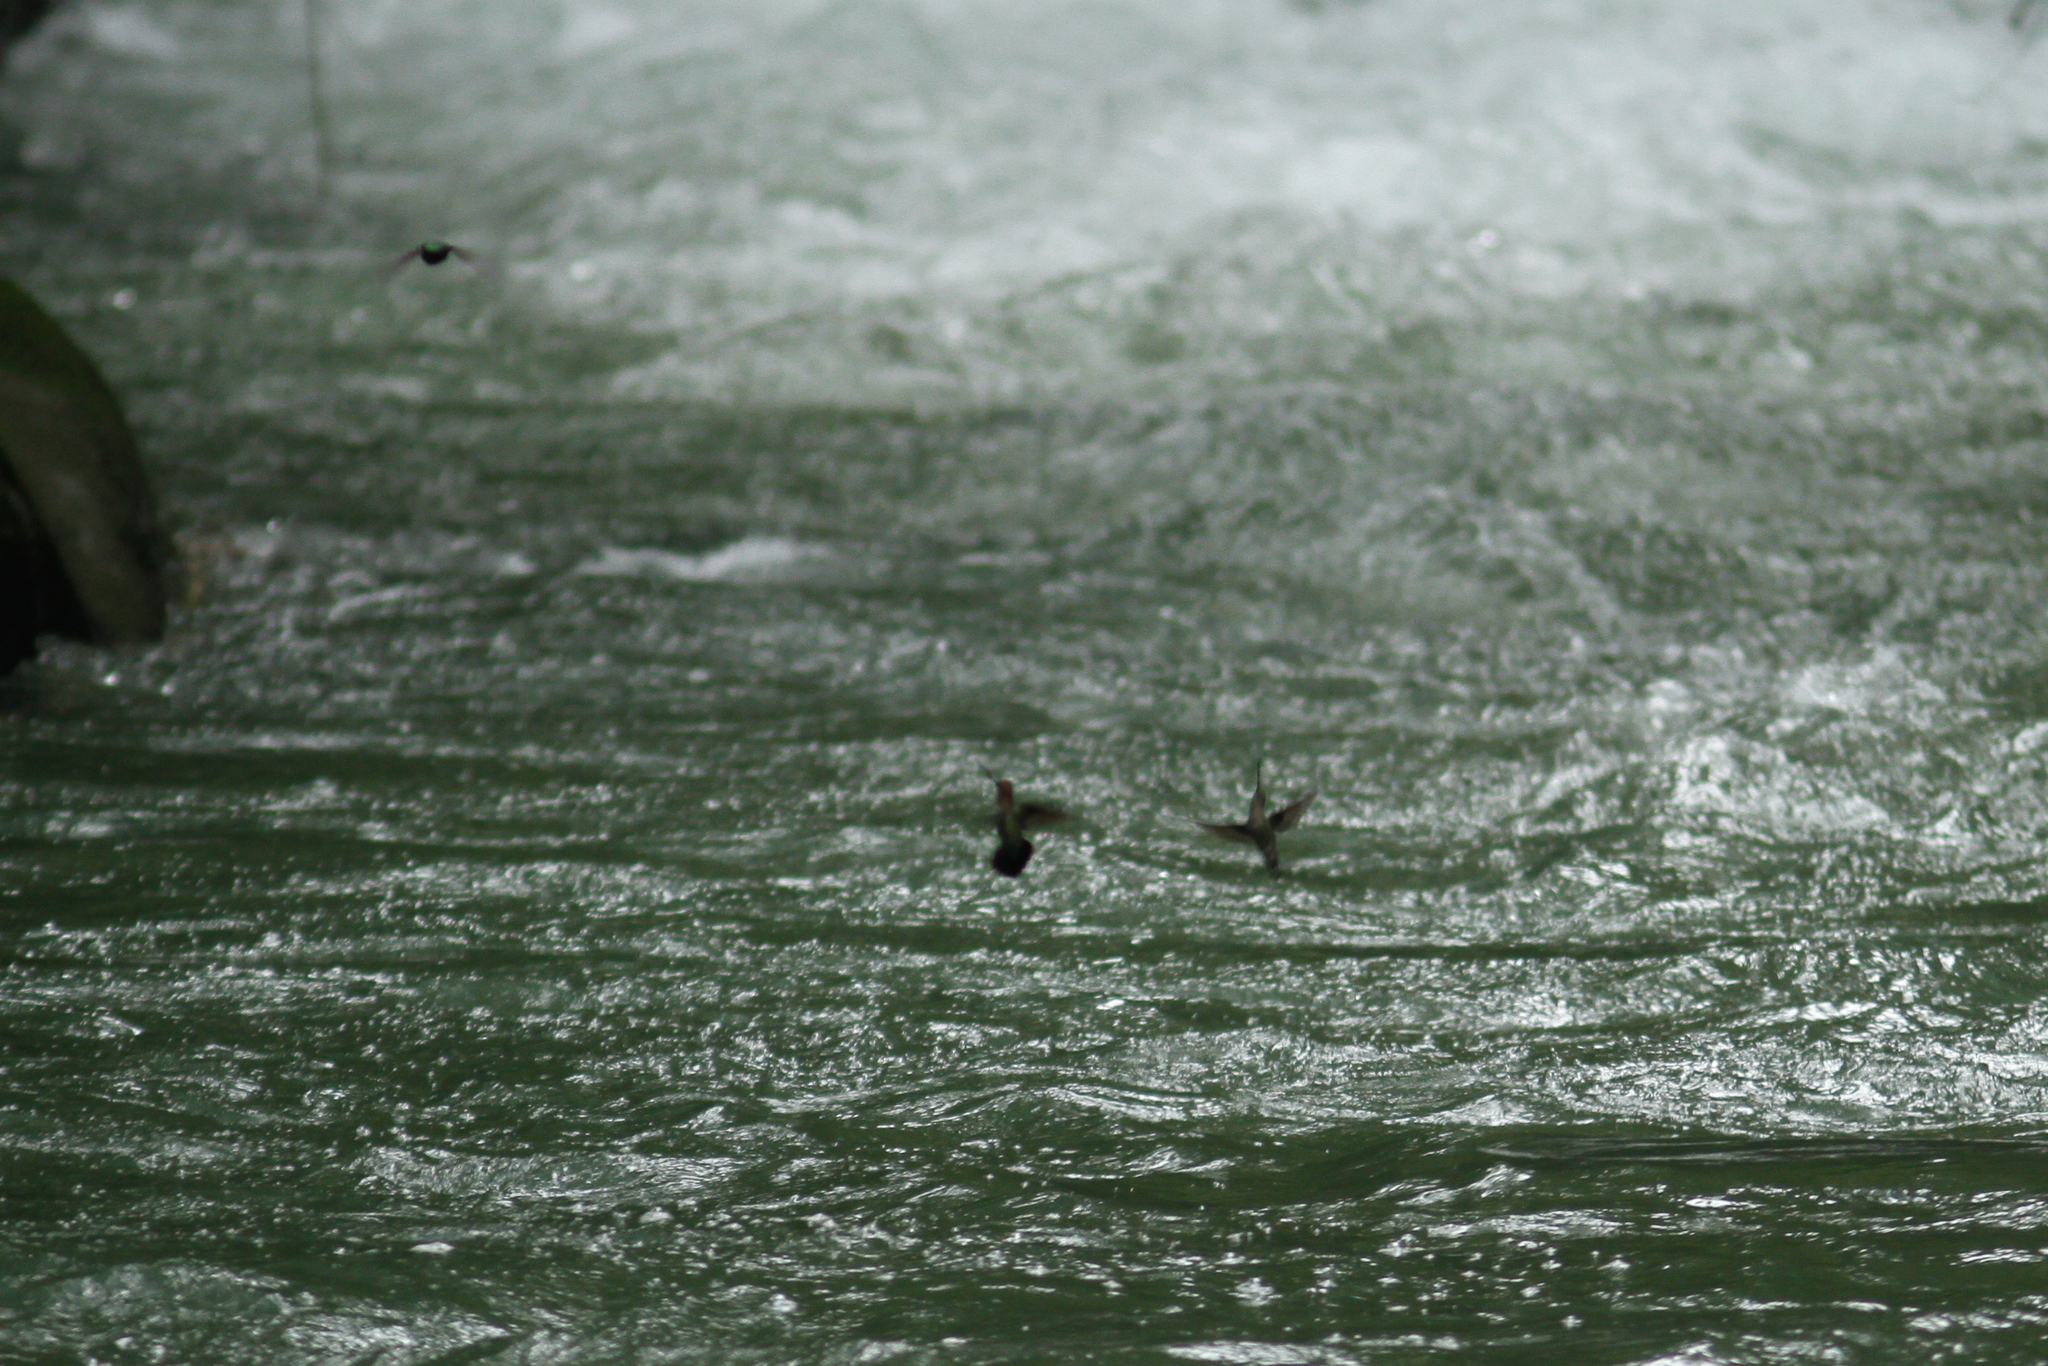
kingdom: Animalia
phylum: Chordata
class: Aves
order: Apodiformes
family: Trochilidae
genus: Doryfera
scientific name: Doryfera ludovicae
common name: Green-fronted lancebill
